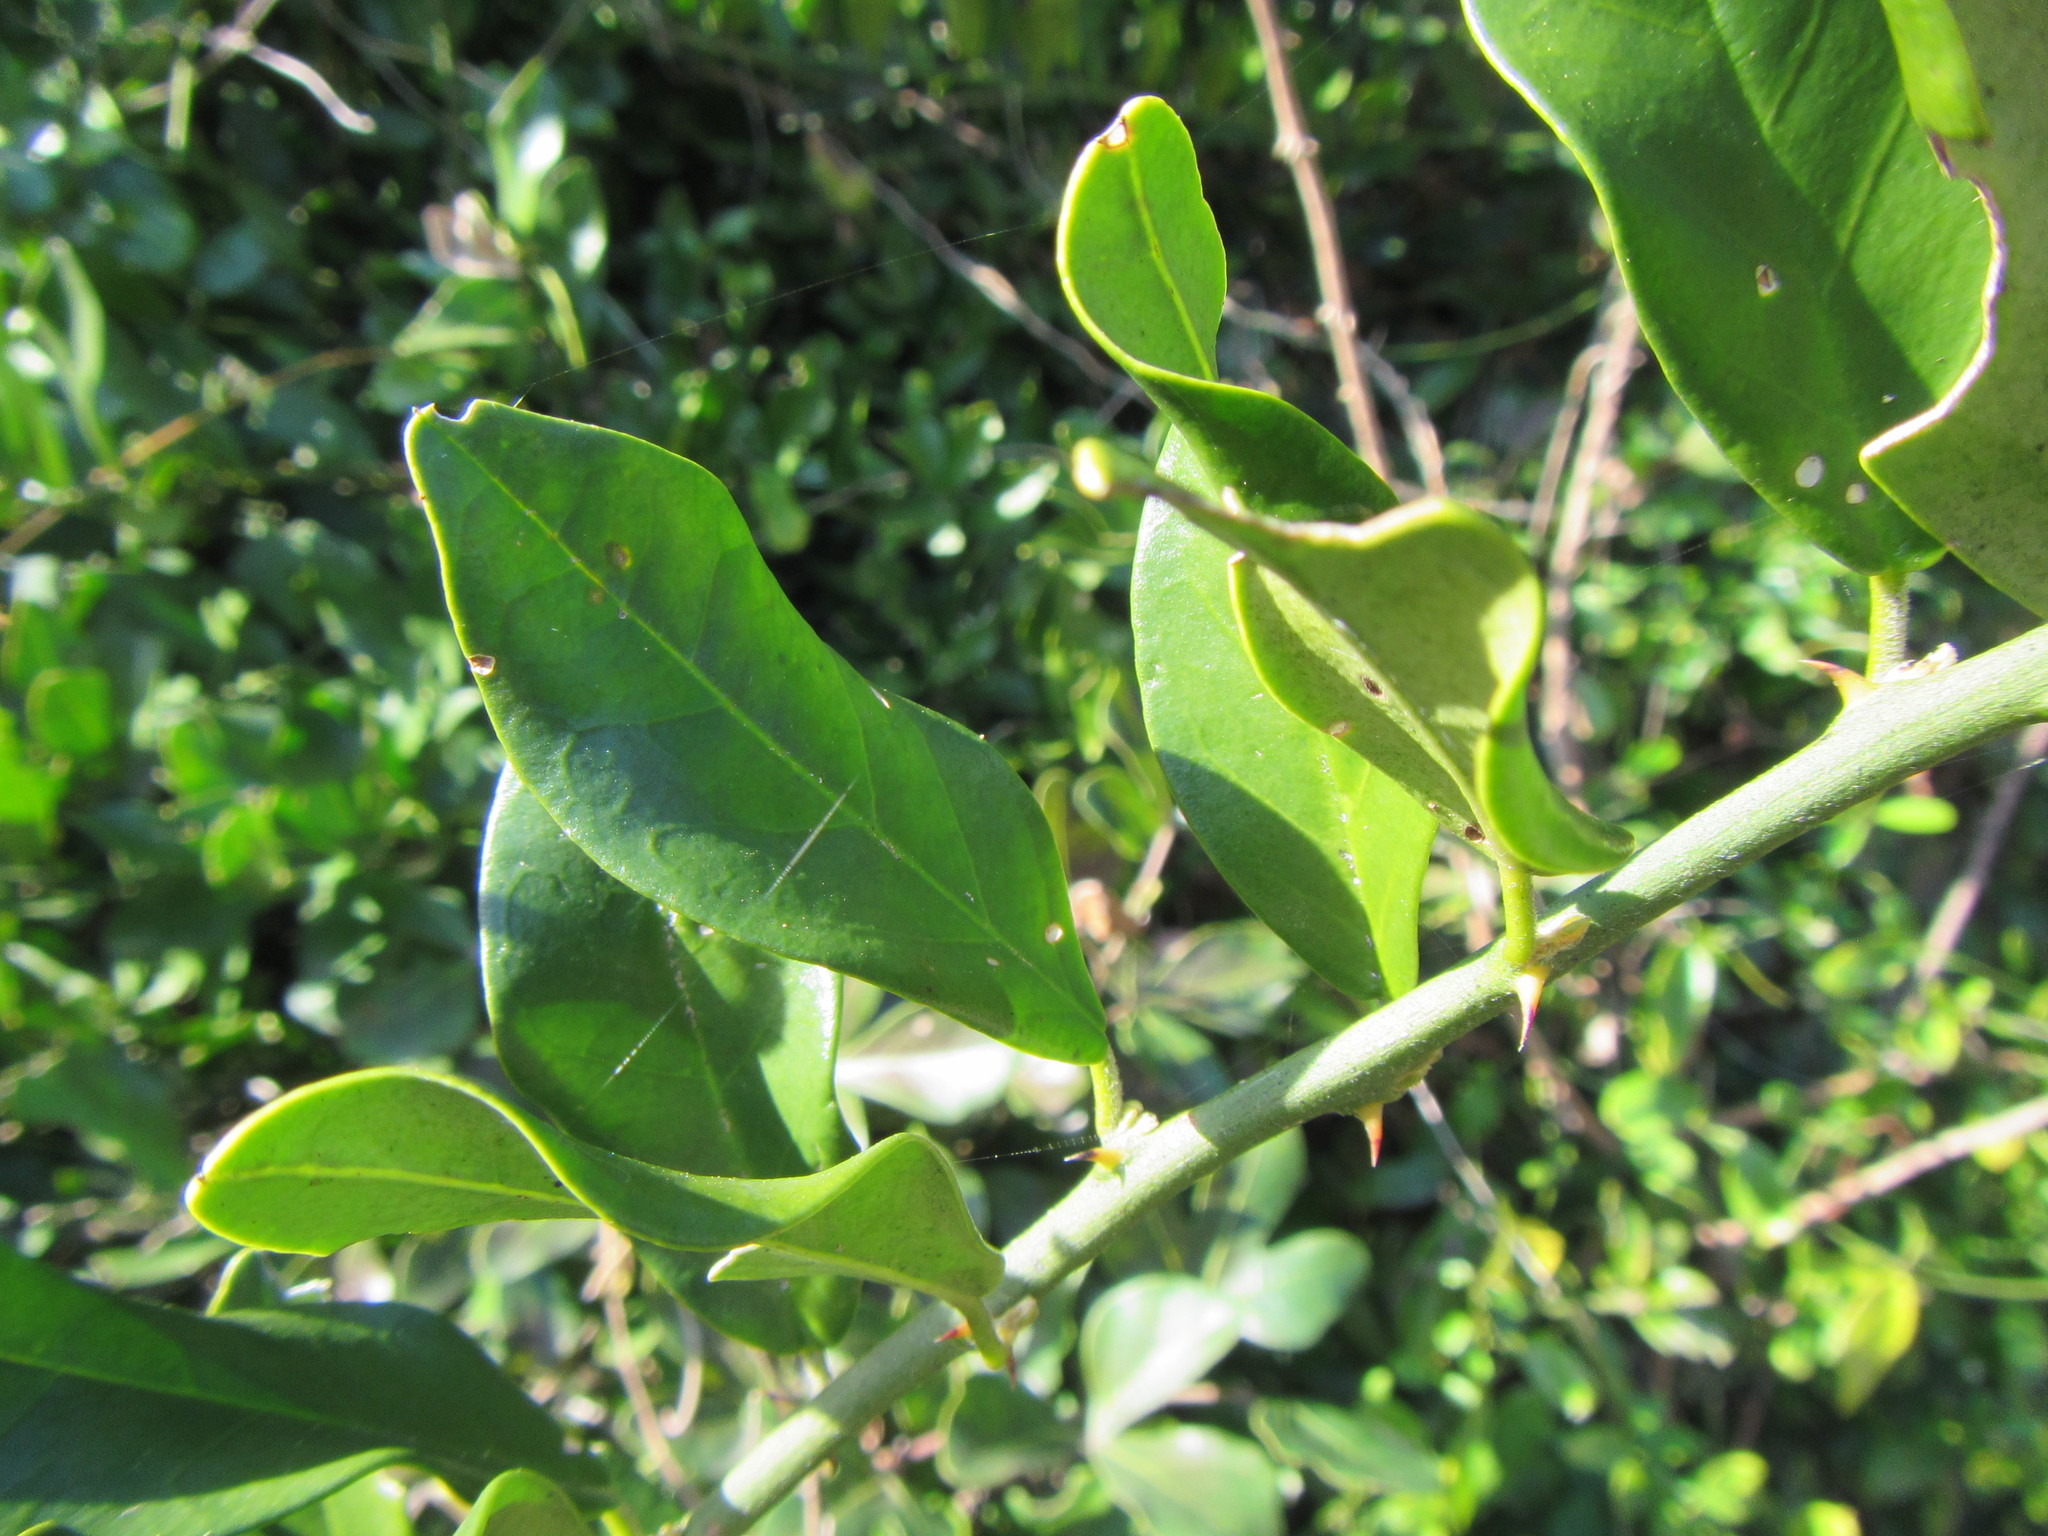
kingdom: Plantae
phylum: Tracheophyta
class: Magnoliopsida
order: Brassicales
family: Capparaceae
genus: Capparis
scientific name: Capparis sepiaria
